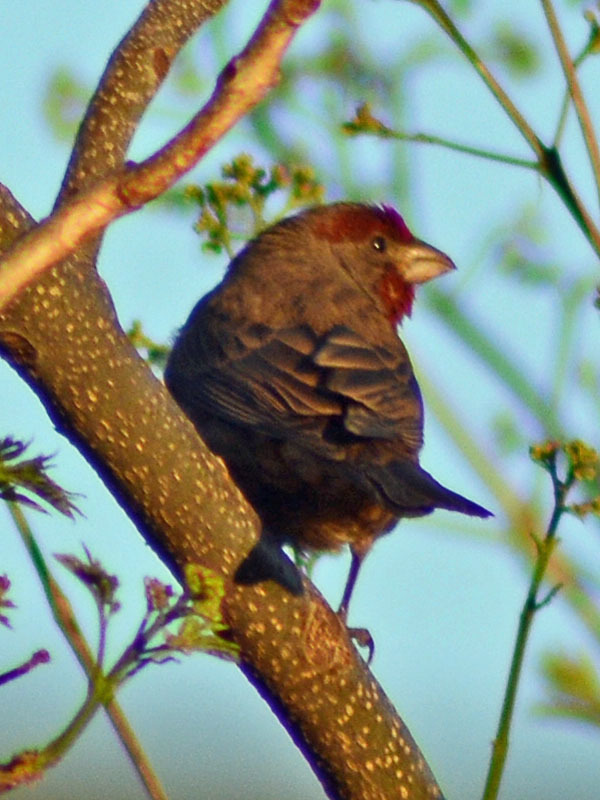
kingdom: Animalia
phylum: Chordata
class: Aves
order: Passeriformes
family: Fringillidae
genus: Haemorhous
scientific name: Haemorhous mexicanus
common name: House finch
